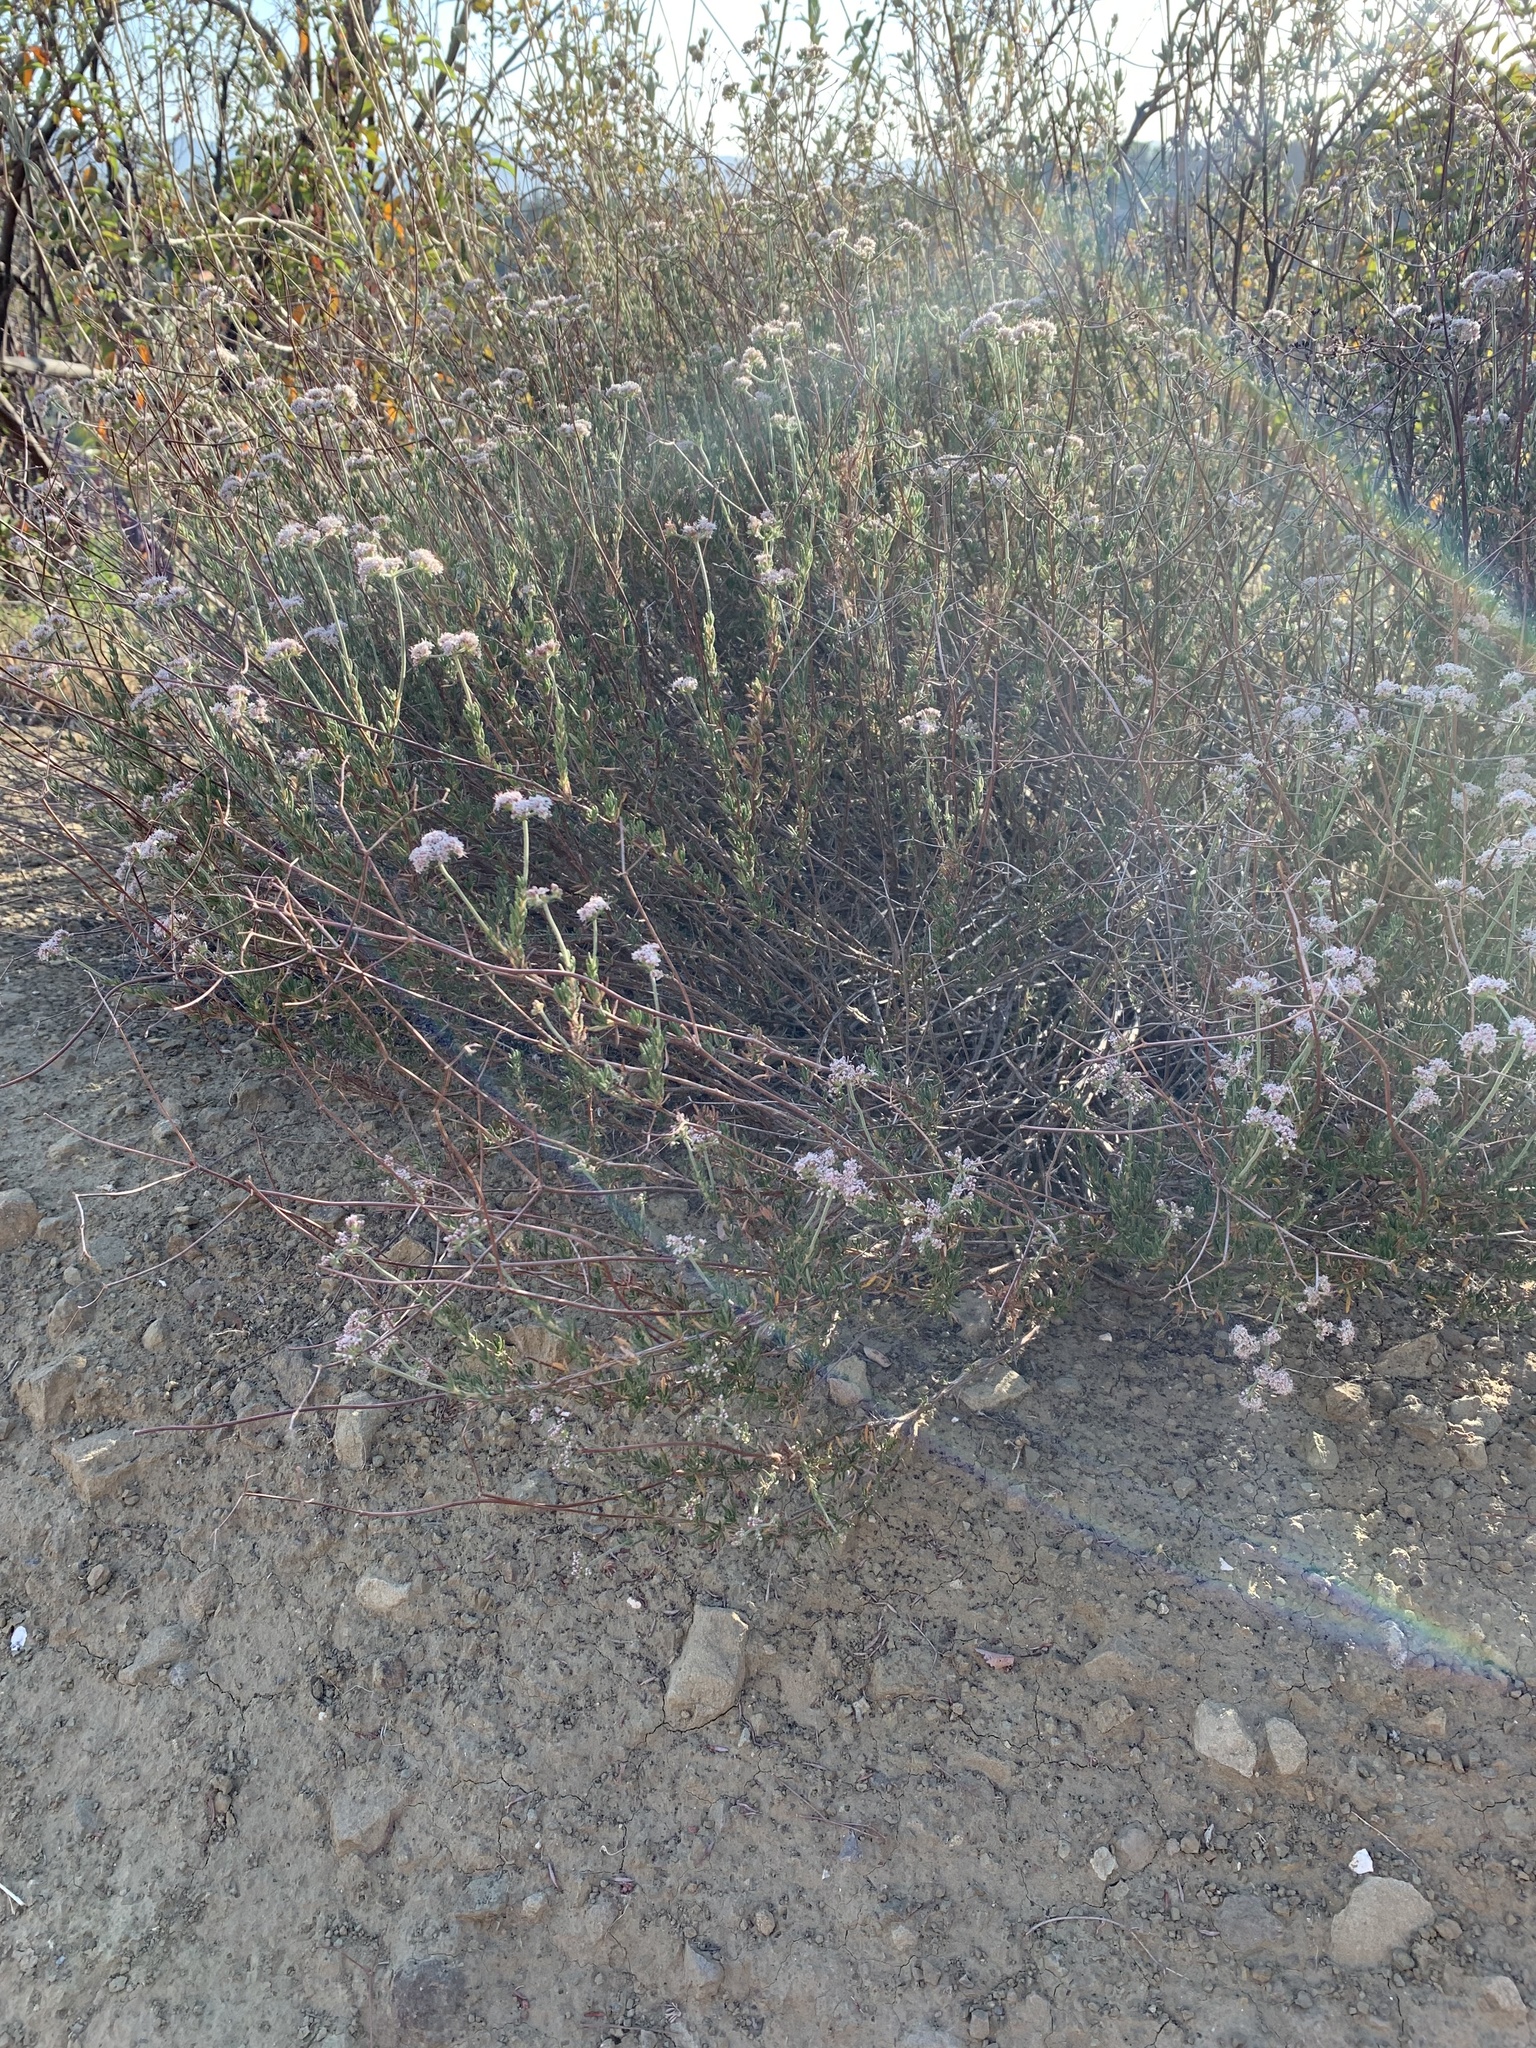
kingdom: Plantae
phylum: Tracheophyta
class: Magnoliopsida
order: Caryophyllales
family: Polygonaceae
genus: Eriogonum
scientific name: Eriogonum fasciculatum
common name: California wild buckwheat
